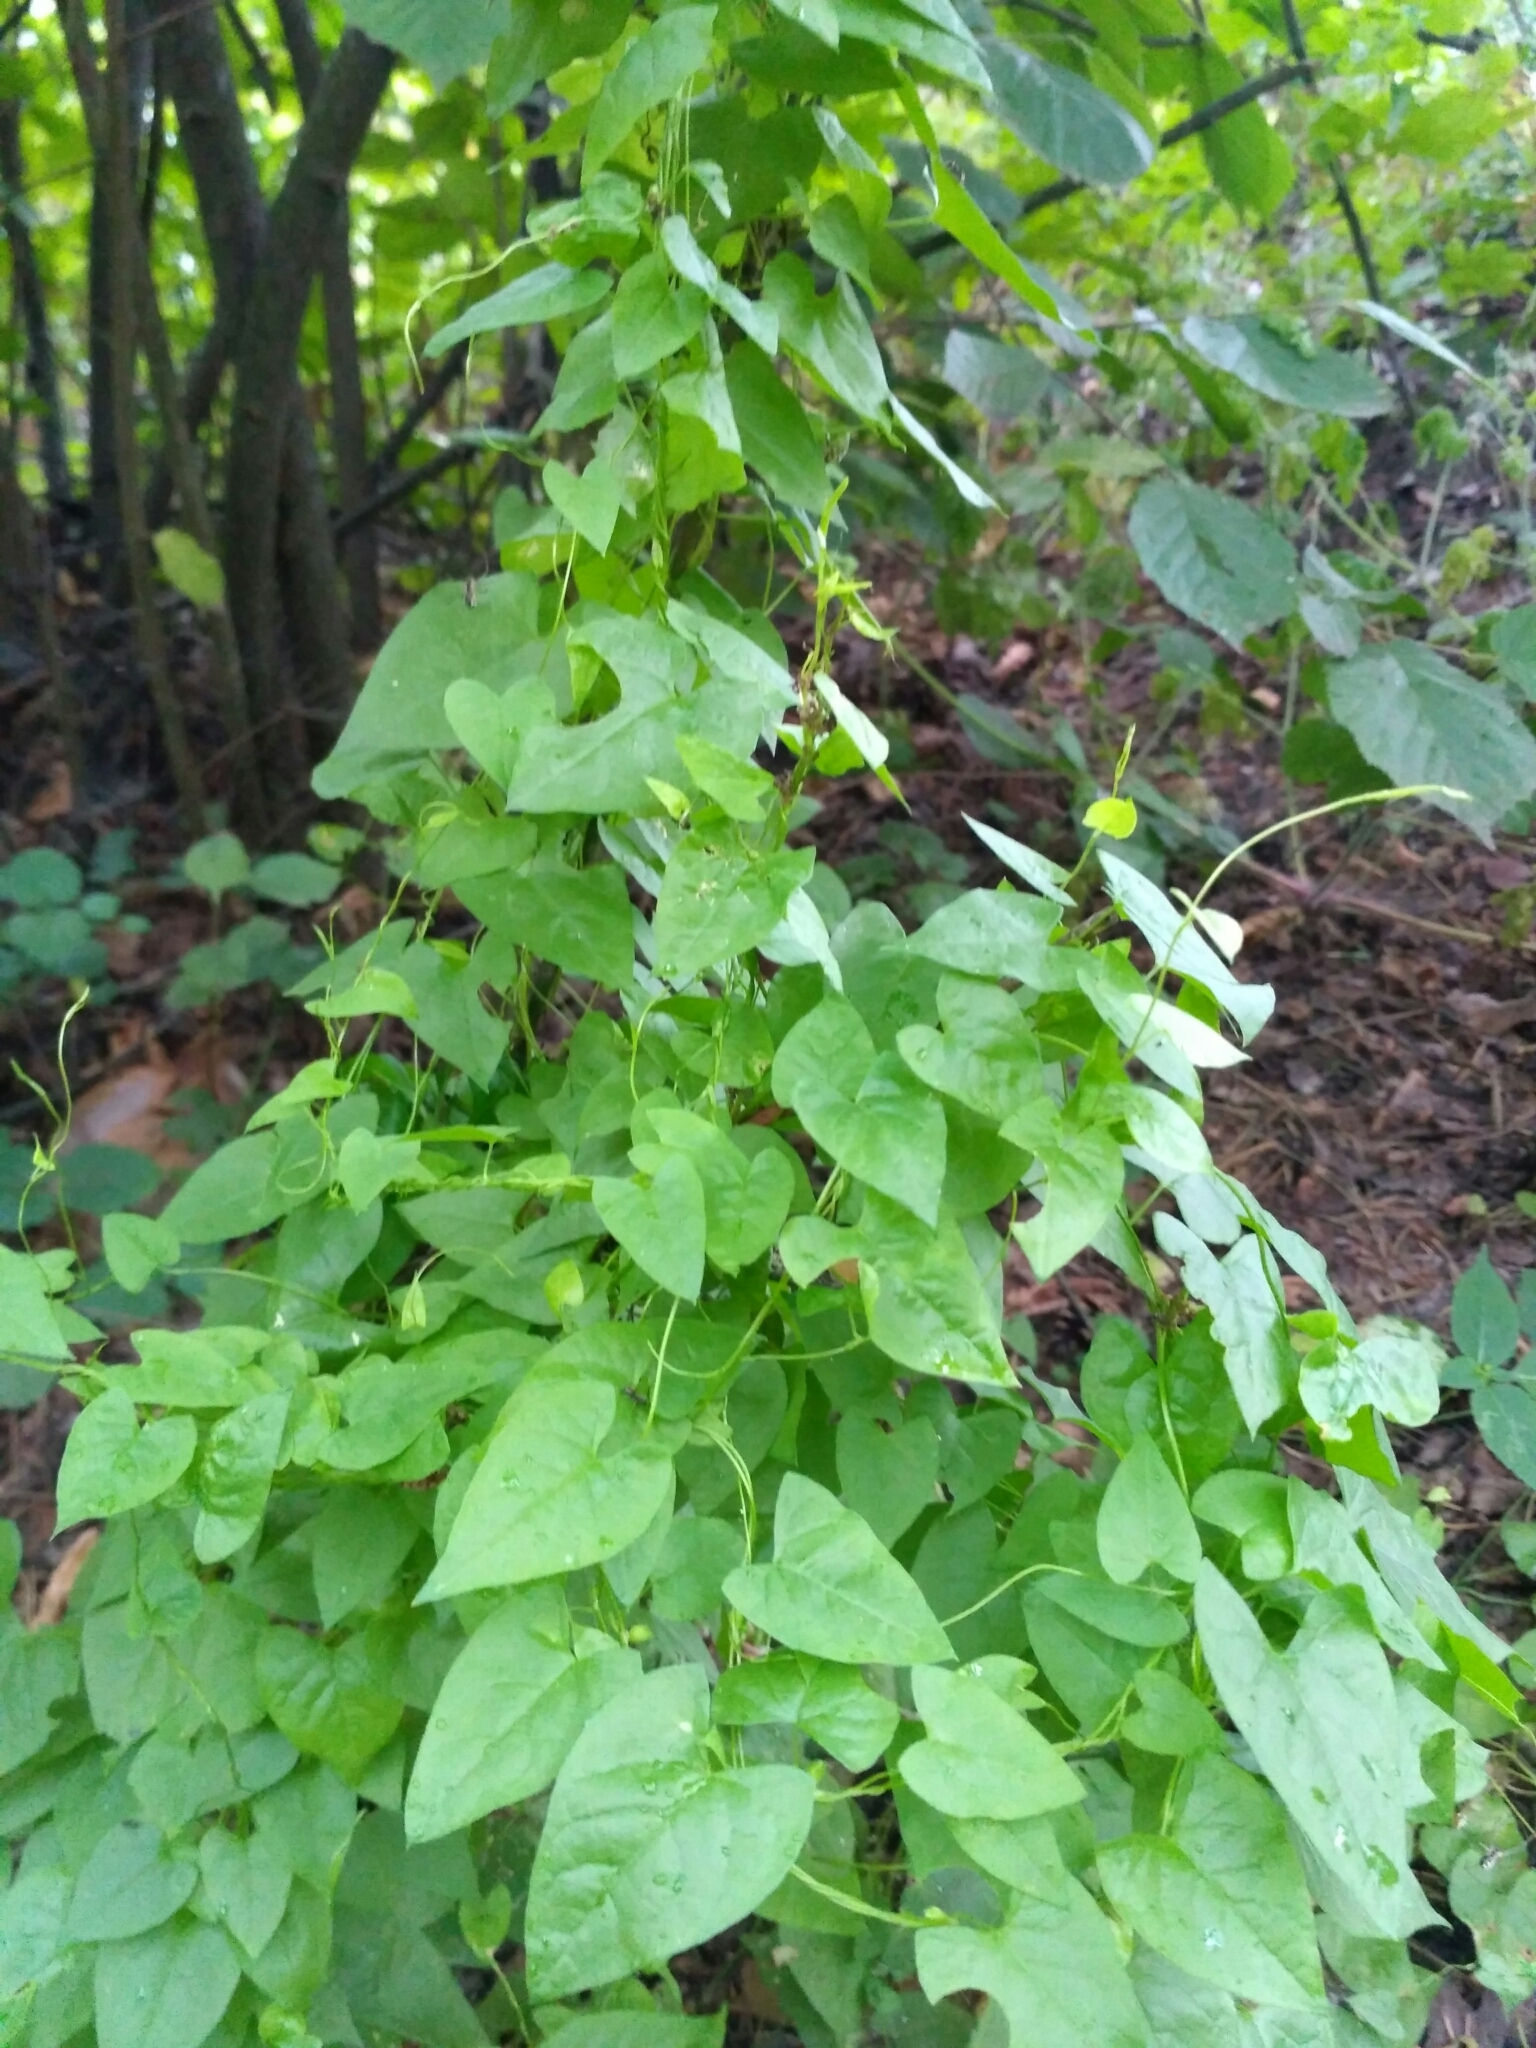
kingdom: Plantae
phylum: Tracheophyta
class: Magnoliopsida
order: Solanales
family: Convolvulaceae
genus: Calystegia
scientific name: Calystegia sepium
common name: Hedge bindweed
